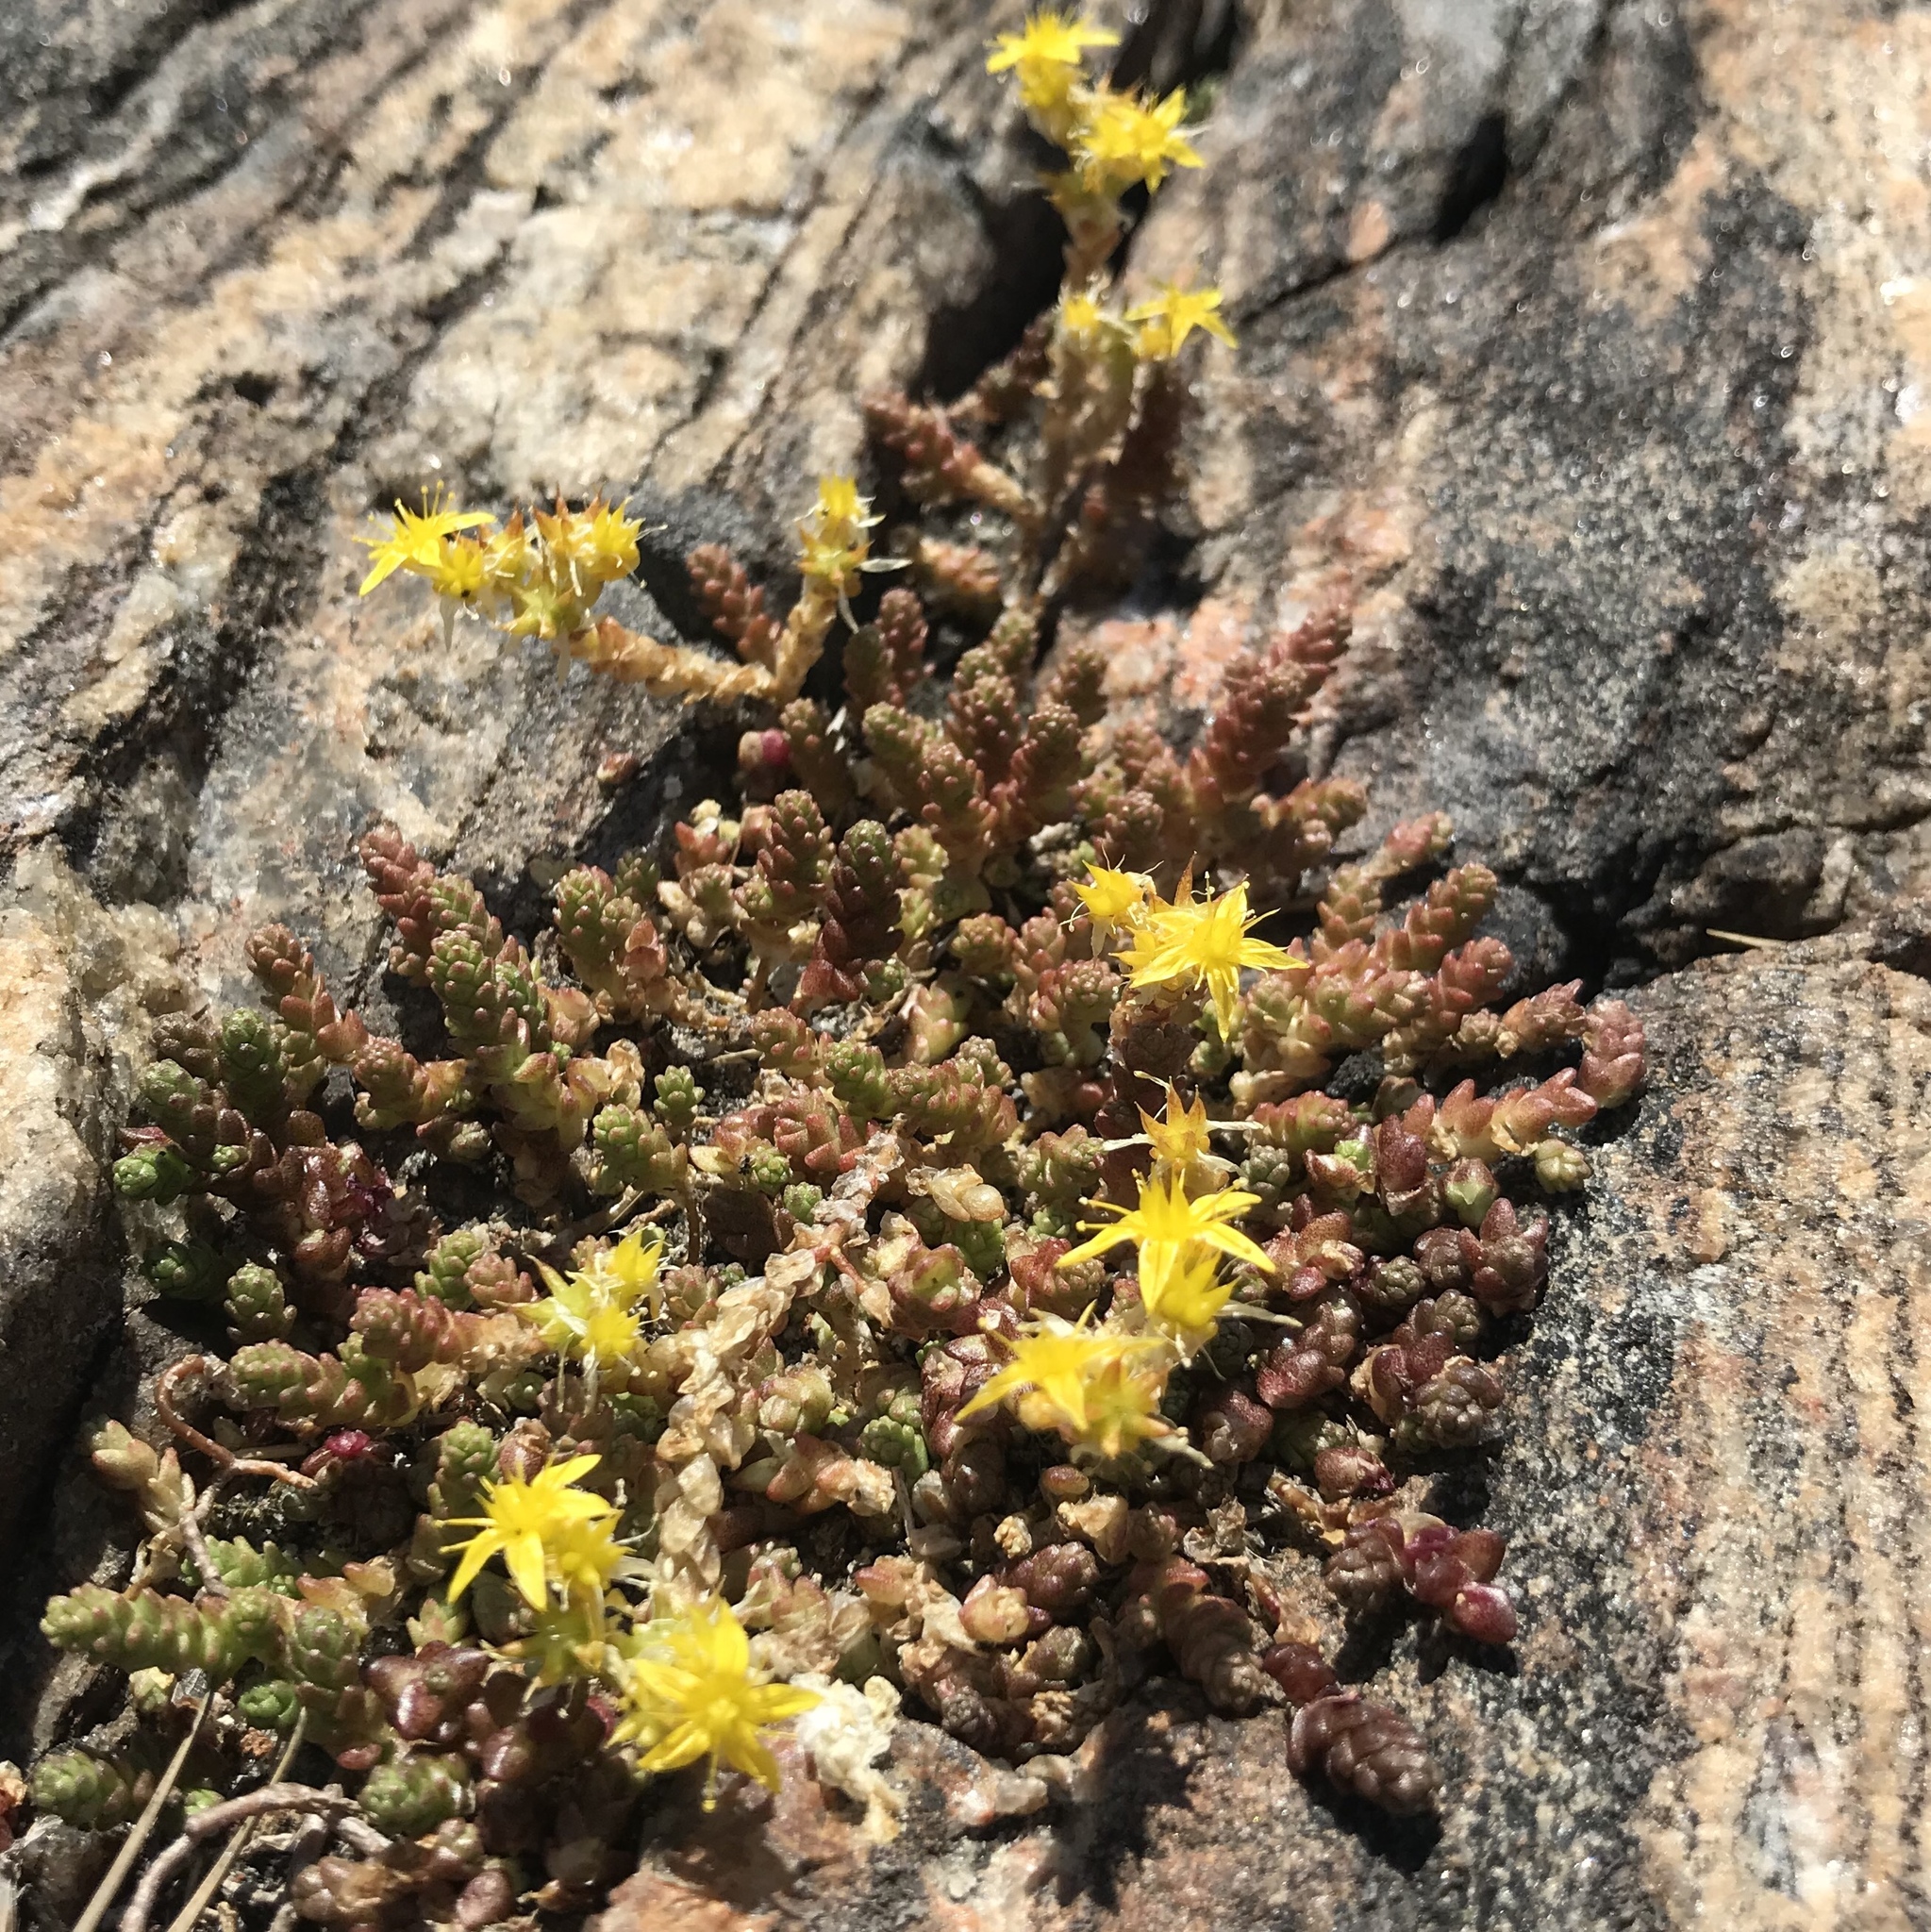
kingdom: Plantae
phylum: Tracheophyta
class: Magnoliopsida
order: Saxifragales
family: Crassulaceae
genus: Sedum
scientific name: Sedum acre
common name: Biting stonecrop
